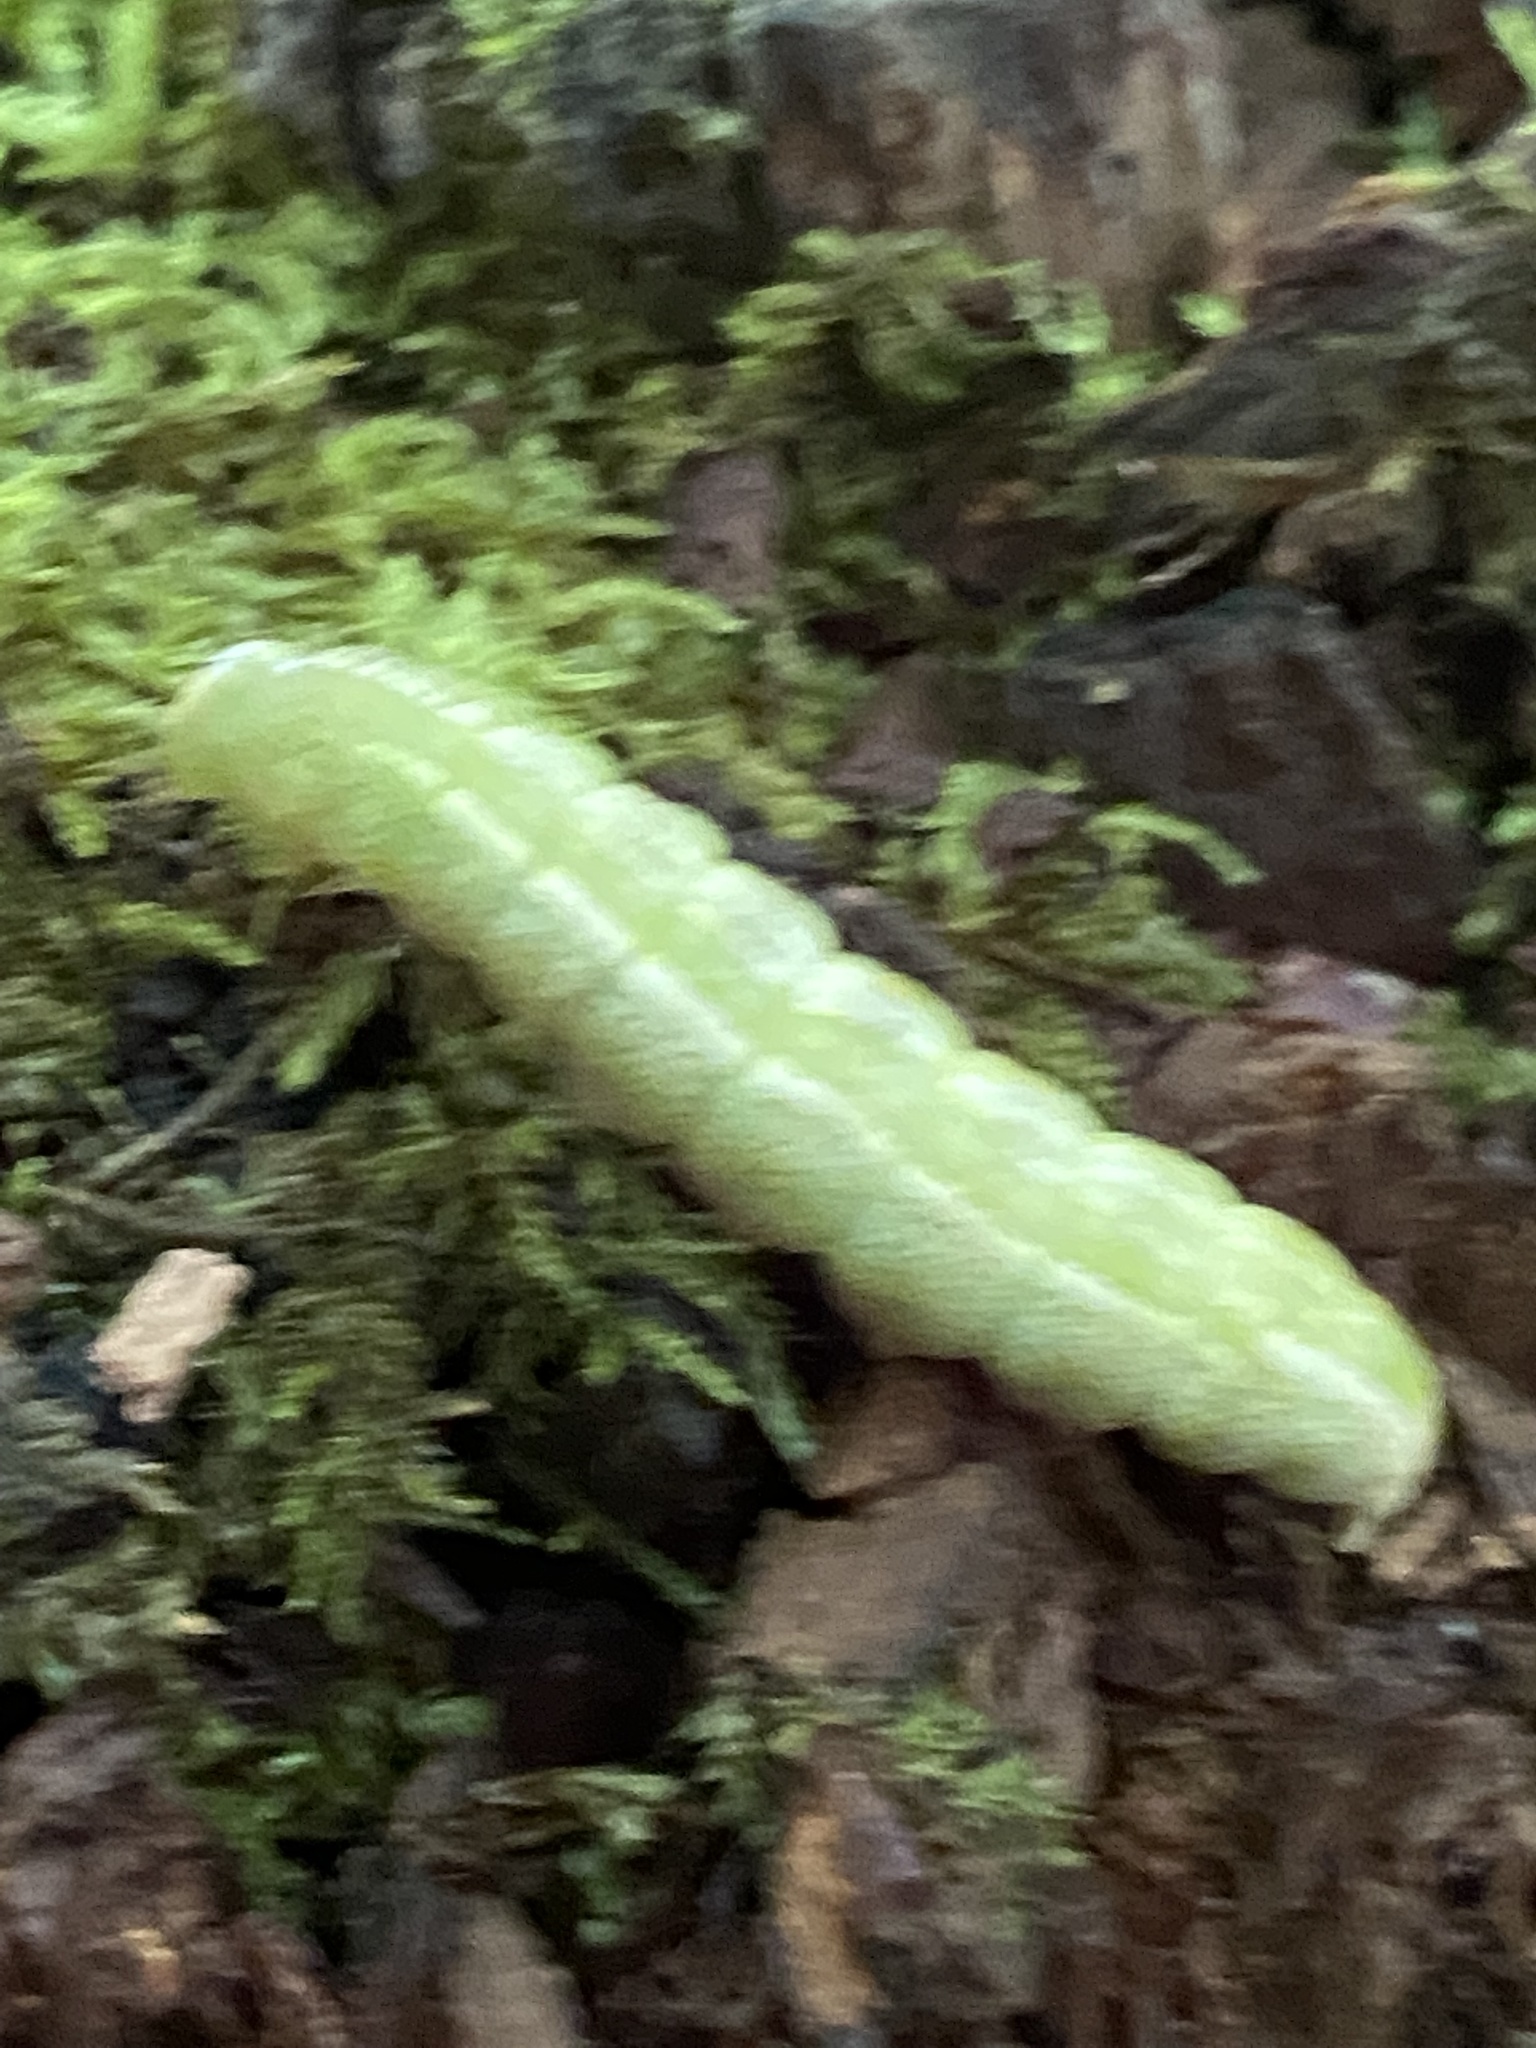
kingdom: Animalia
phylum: Arthropoda
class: Insecta
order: Lepidoptera
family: Notodontidae
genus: Disphragis
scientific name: Disphragis Cecrita guttivitta
